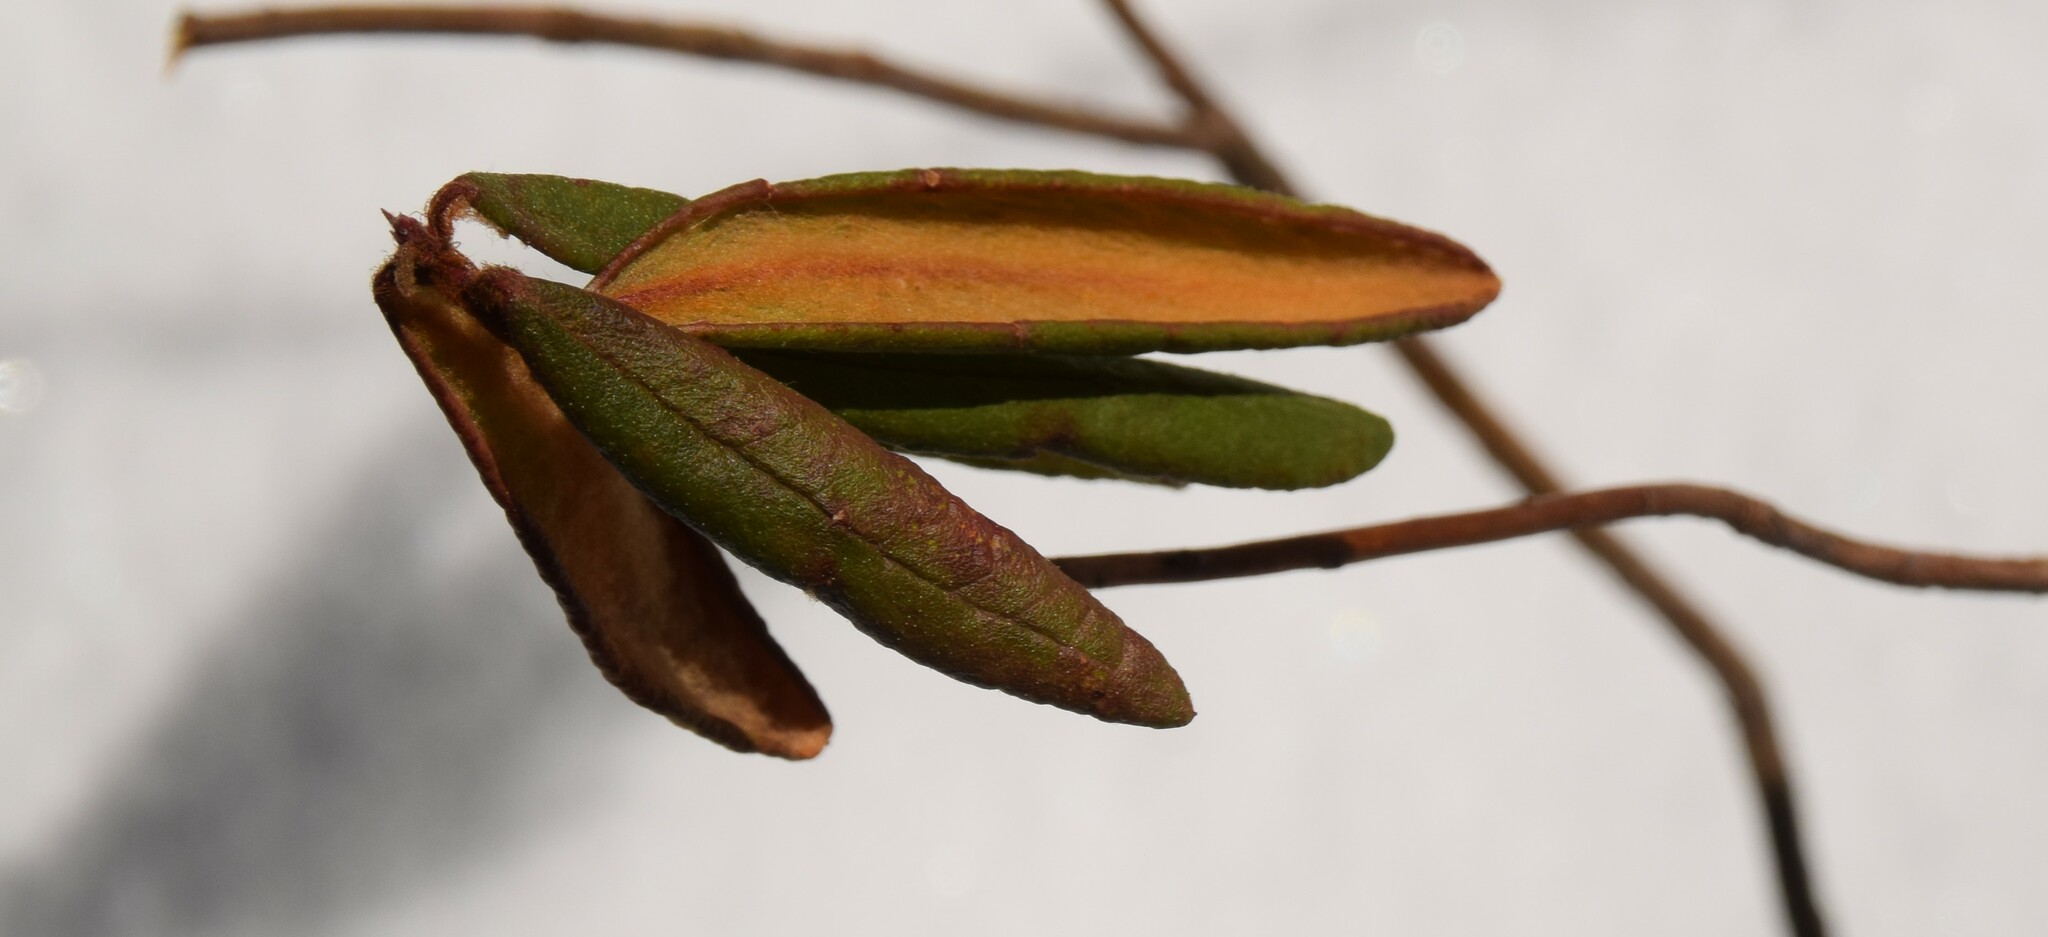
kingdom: Plantae
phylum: Tracheophyta
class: Magnoliopsida
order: Ericales
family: Ericaceae
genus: Rhododendron
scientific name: Rhododendron groenlandicum
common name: Bog labrador tea
